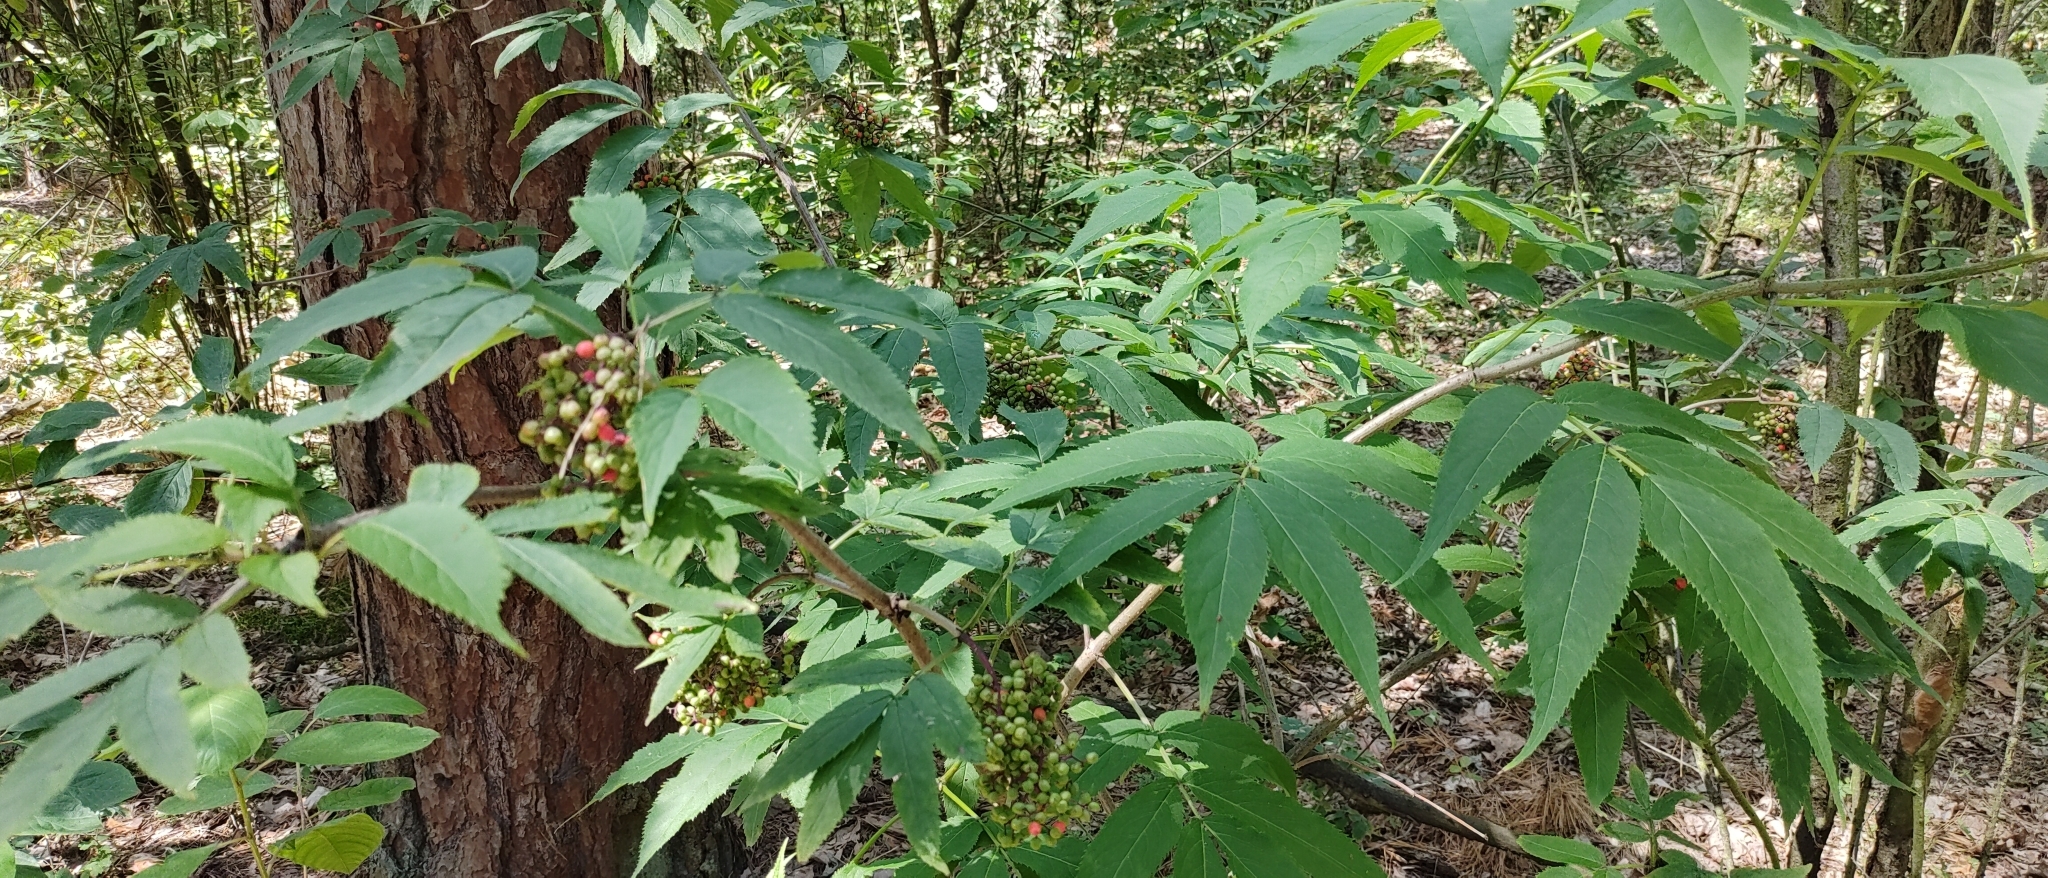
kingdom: Plantae
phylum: Tracheophyta
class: Magnoliopsida
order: Dipsacales
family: Viburnaceae
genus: Sambucus
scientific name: Sambucus racemosa
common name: Red-berried elder
